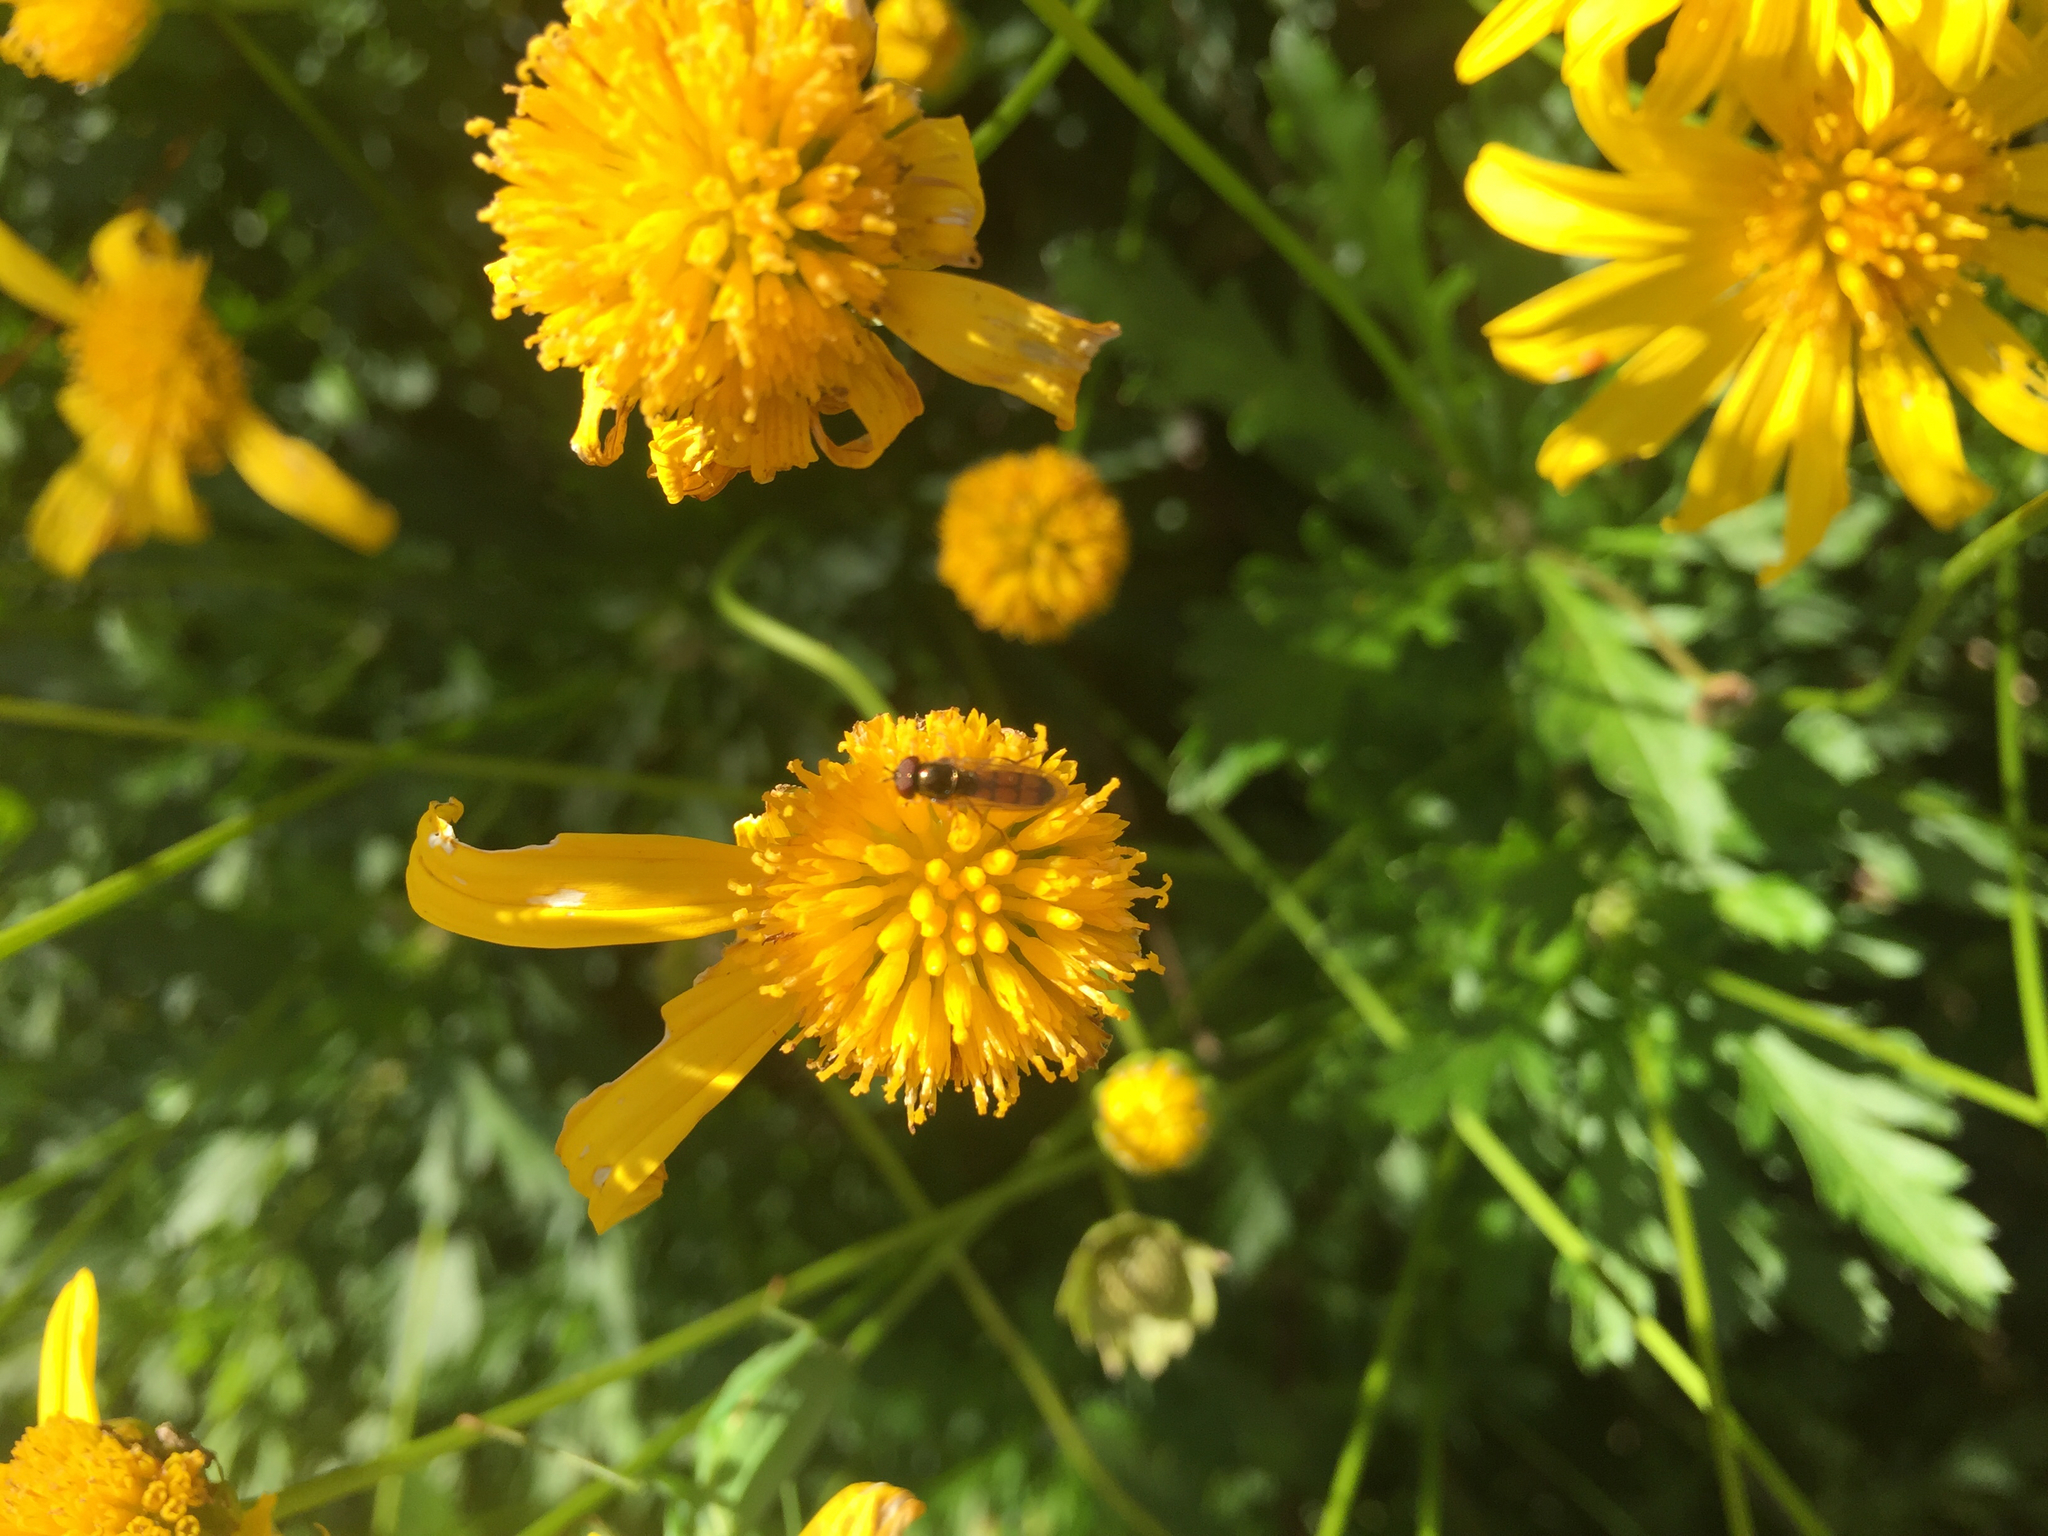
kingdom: Animalia
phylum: Arthropoda
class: Insecta
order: Diptera
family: Syrphidae
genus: Melanostoma
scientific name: Melanostoma fasciatum
